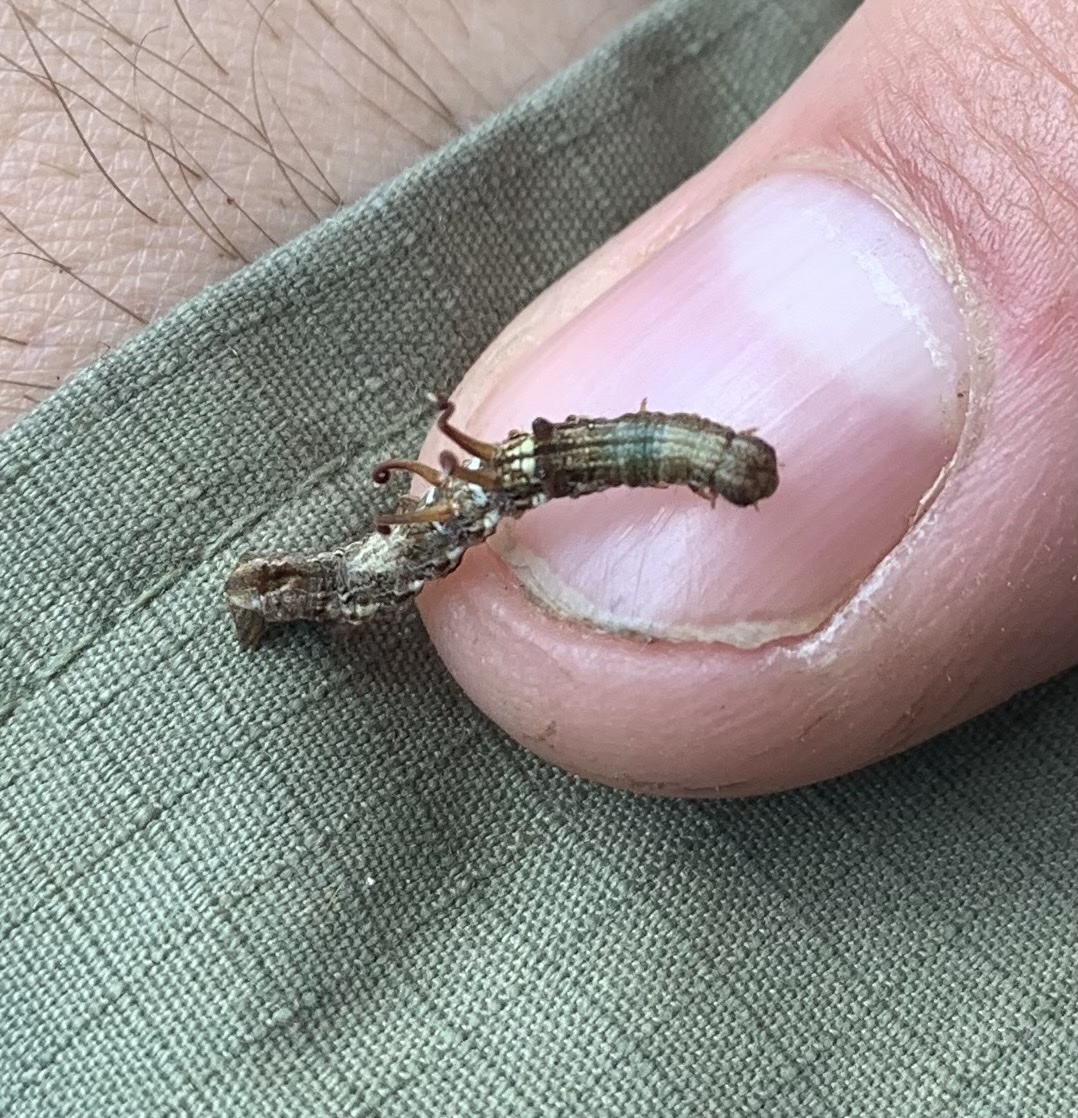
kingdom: Animalia
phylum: Arthropoda
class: Insecta
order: Lepidoptera
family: Geometridae
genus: Nematocampa
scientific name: Nematocampa resistaria
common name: Horned spanworm moth
